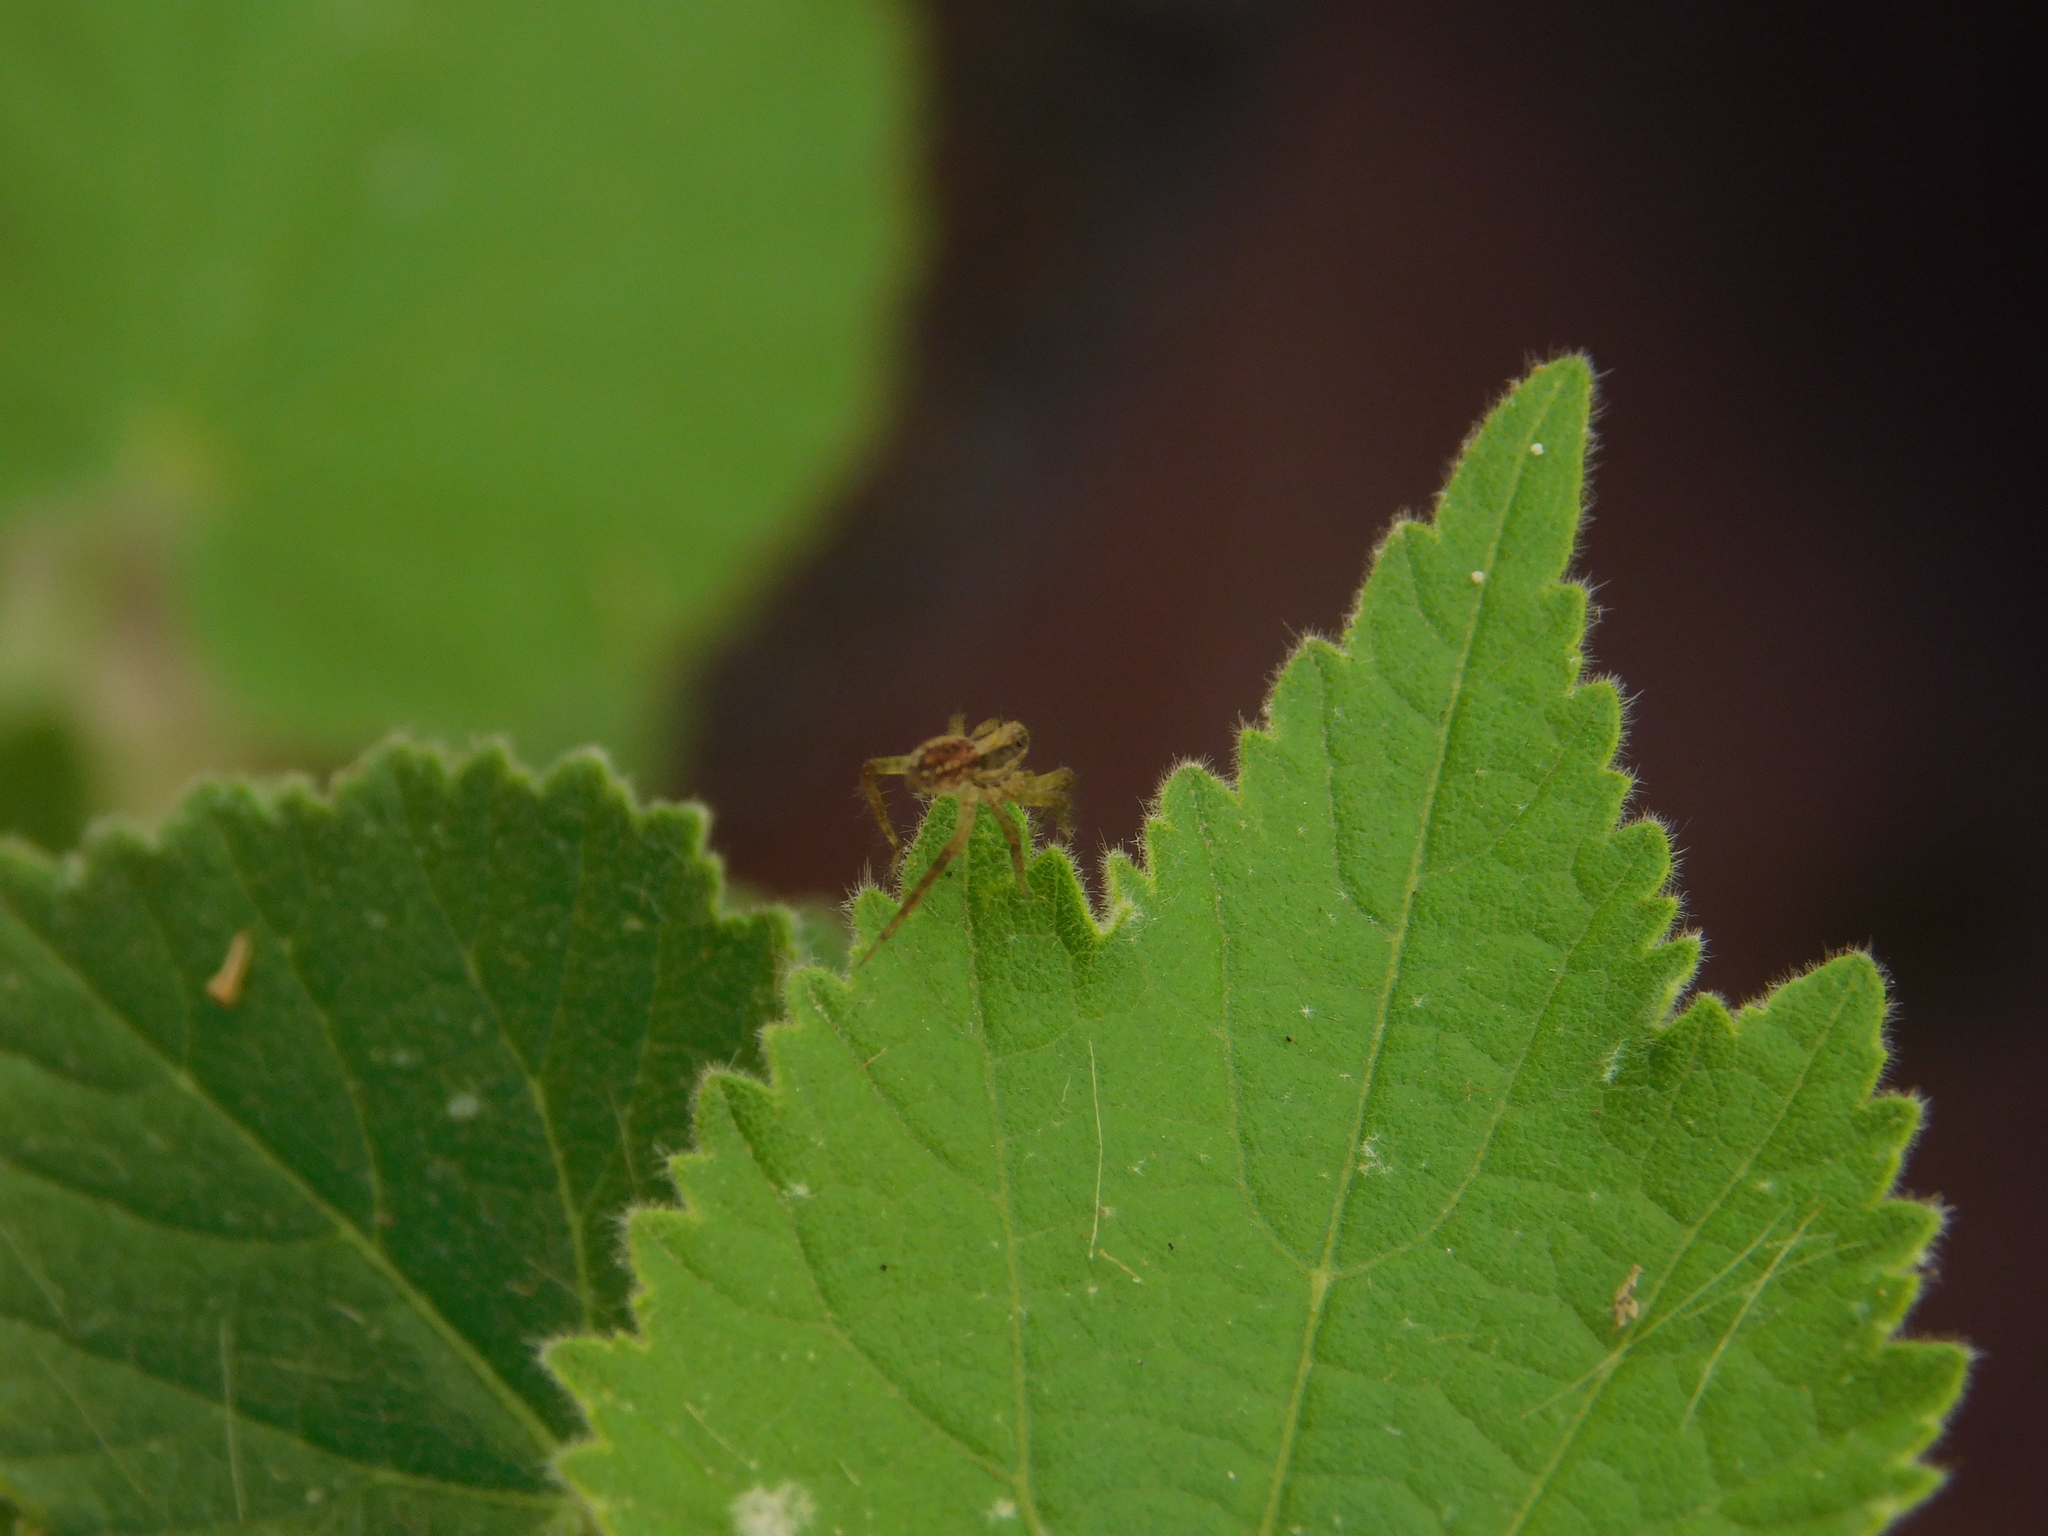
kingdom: Animalia
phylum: Arthropoda
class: Arachnida
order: Araneae
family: Lycosidae
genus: Alopecosa
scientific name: Alopecosa moesta
